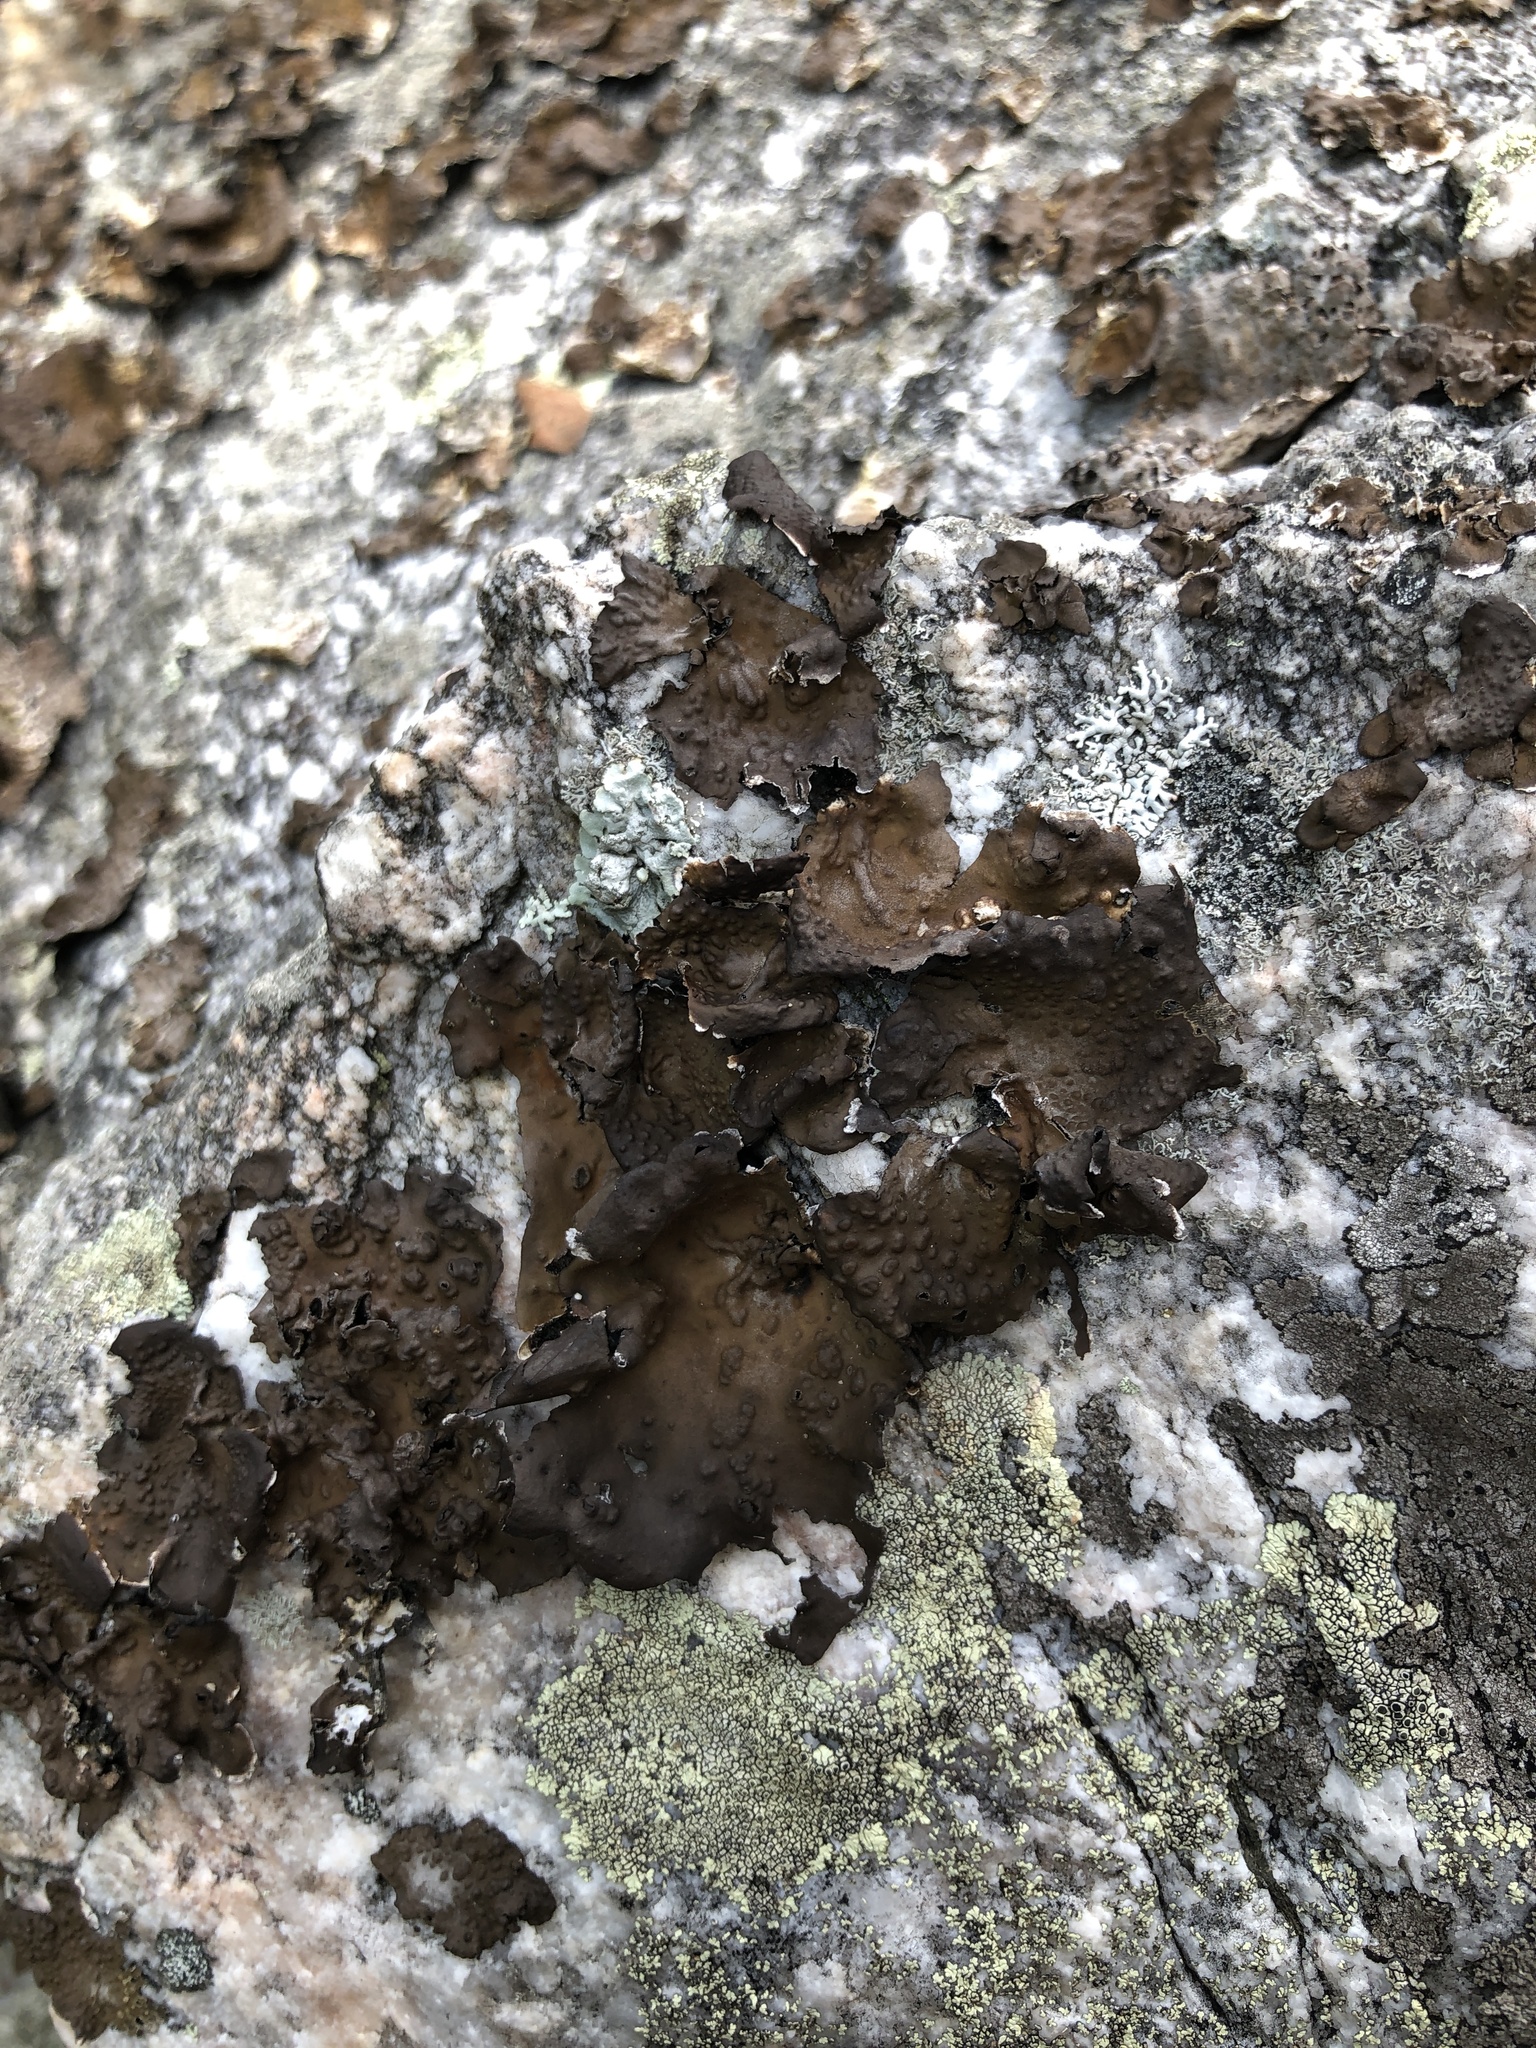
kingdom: Fungi
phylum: Ascomycota
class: Lecanoromycetes
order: Umbilicariales
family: Umbilicariaceae
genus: Lasallia
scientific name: Lasallia pensylvanica
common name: Blackened toadskin lichen
